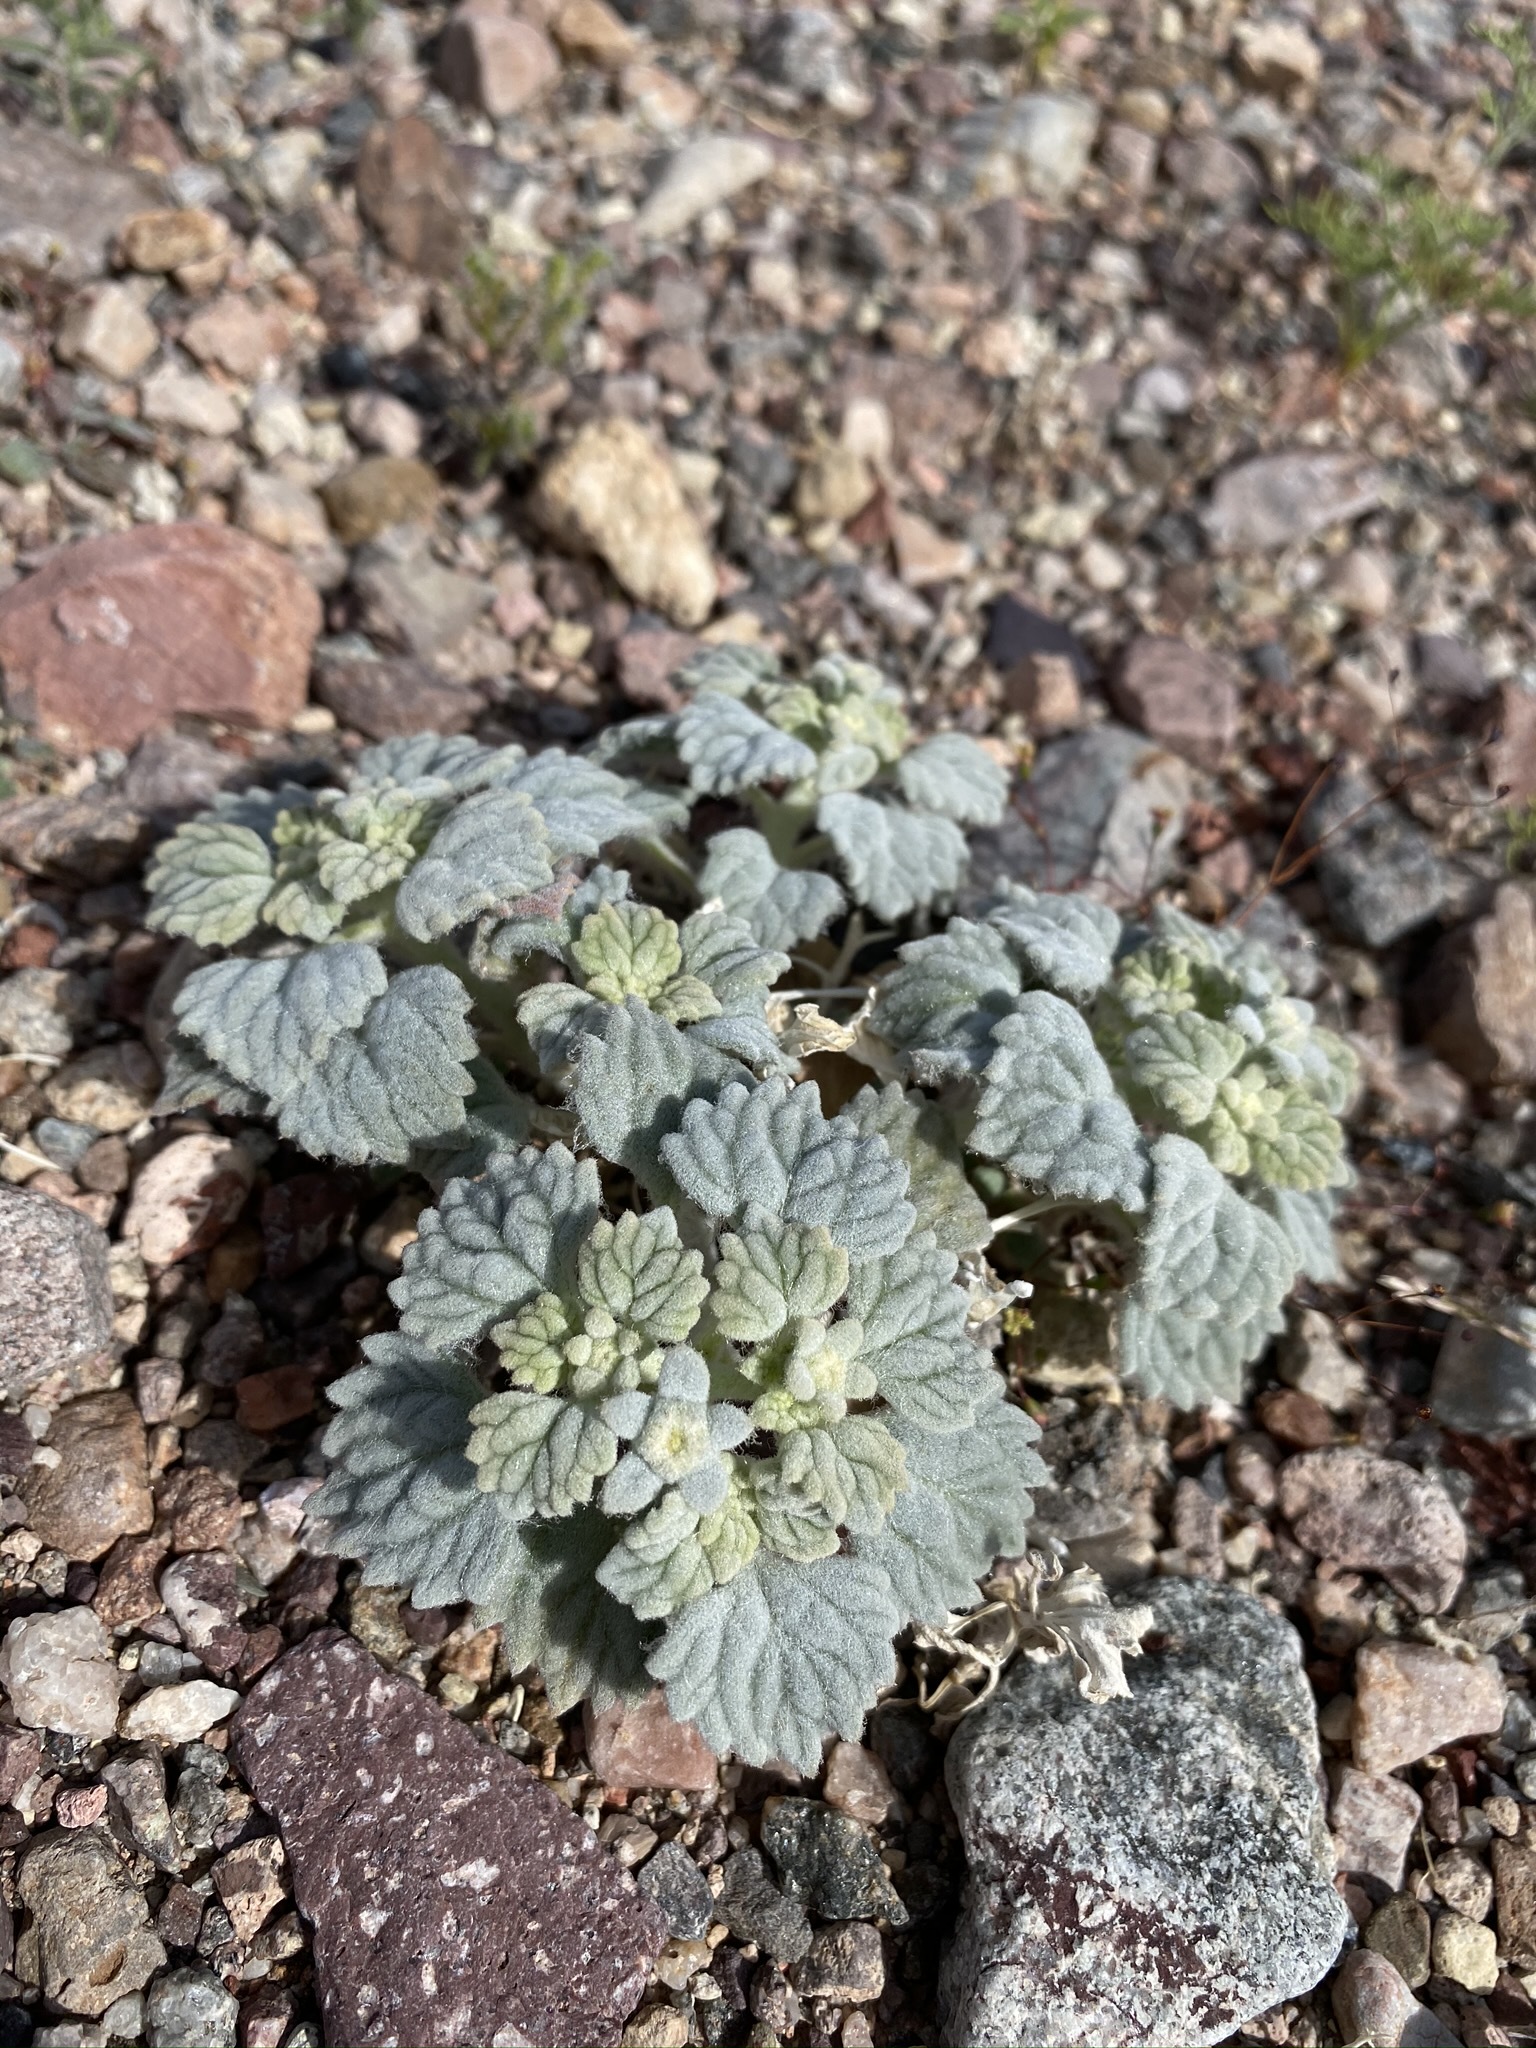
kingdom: Plantae
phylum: Tracheophyta
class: Magnoliopsida
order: Asterales
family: Asteraceae
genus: Psathyrotes
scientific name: Psathyrotes ramosissima
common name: Turtleback
